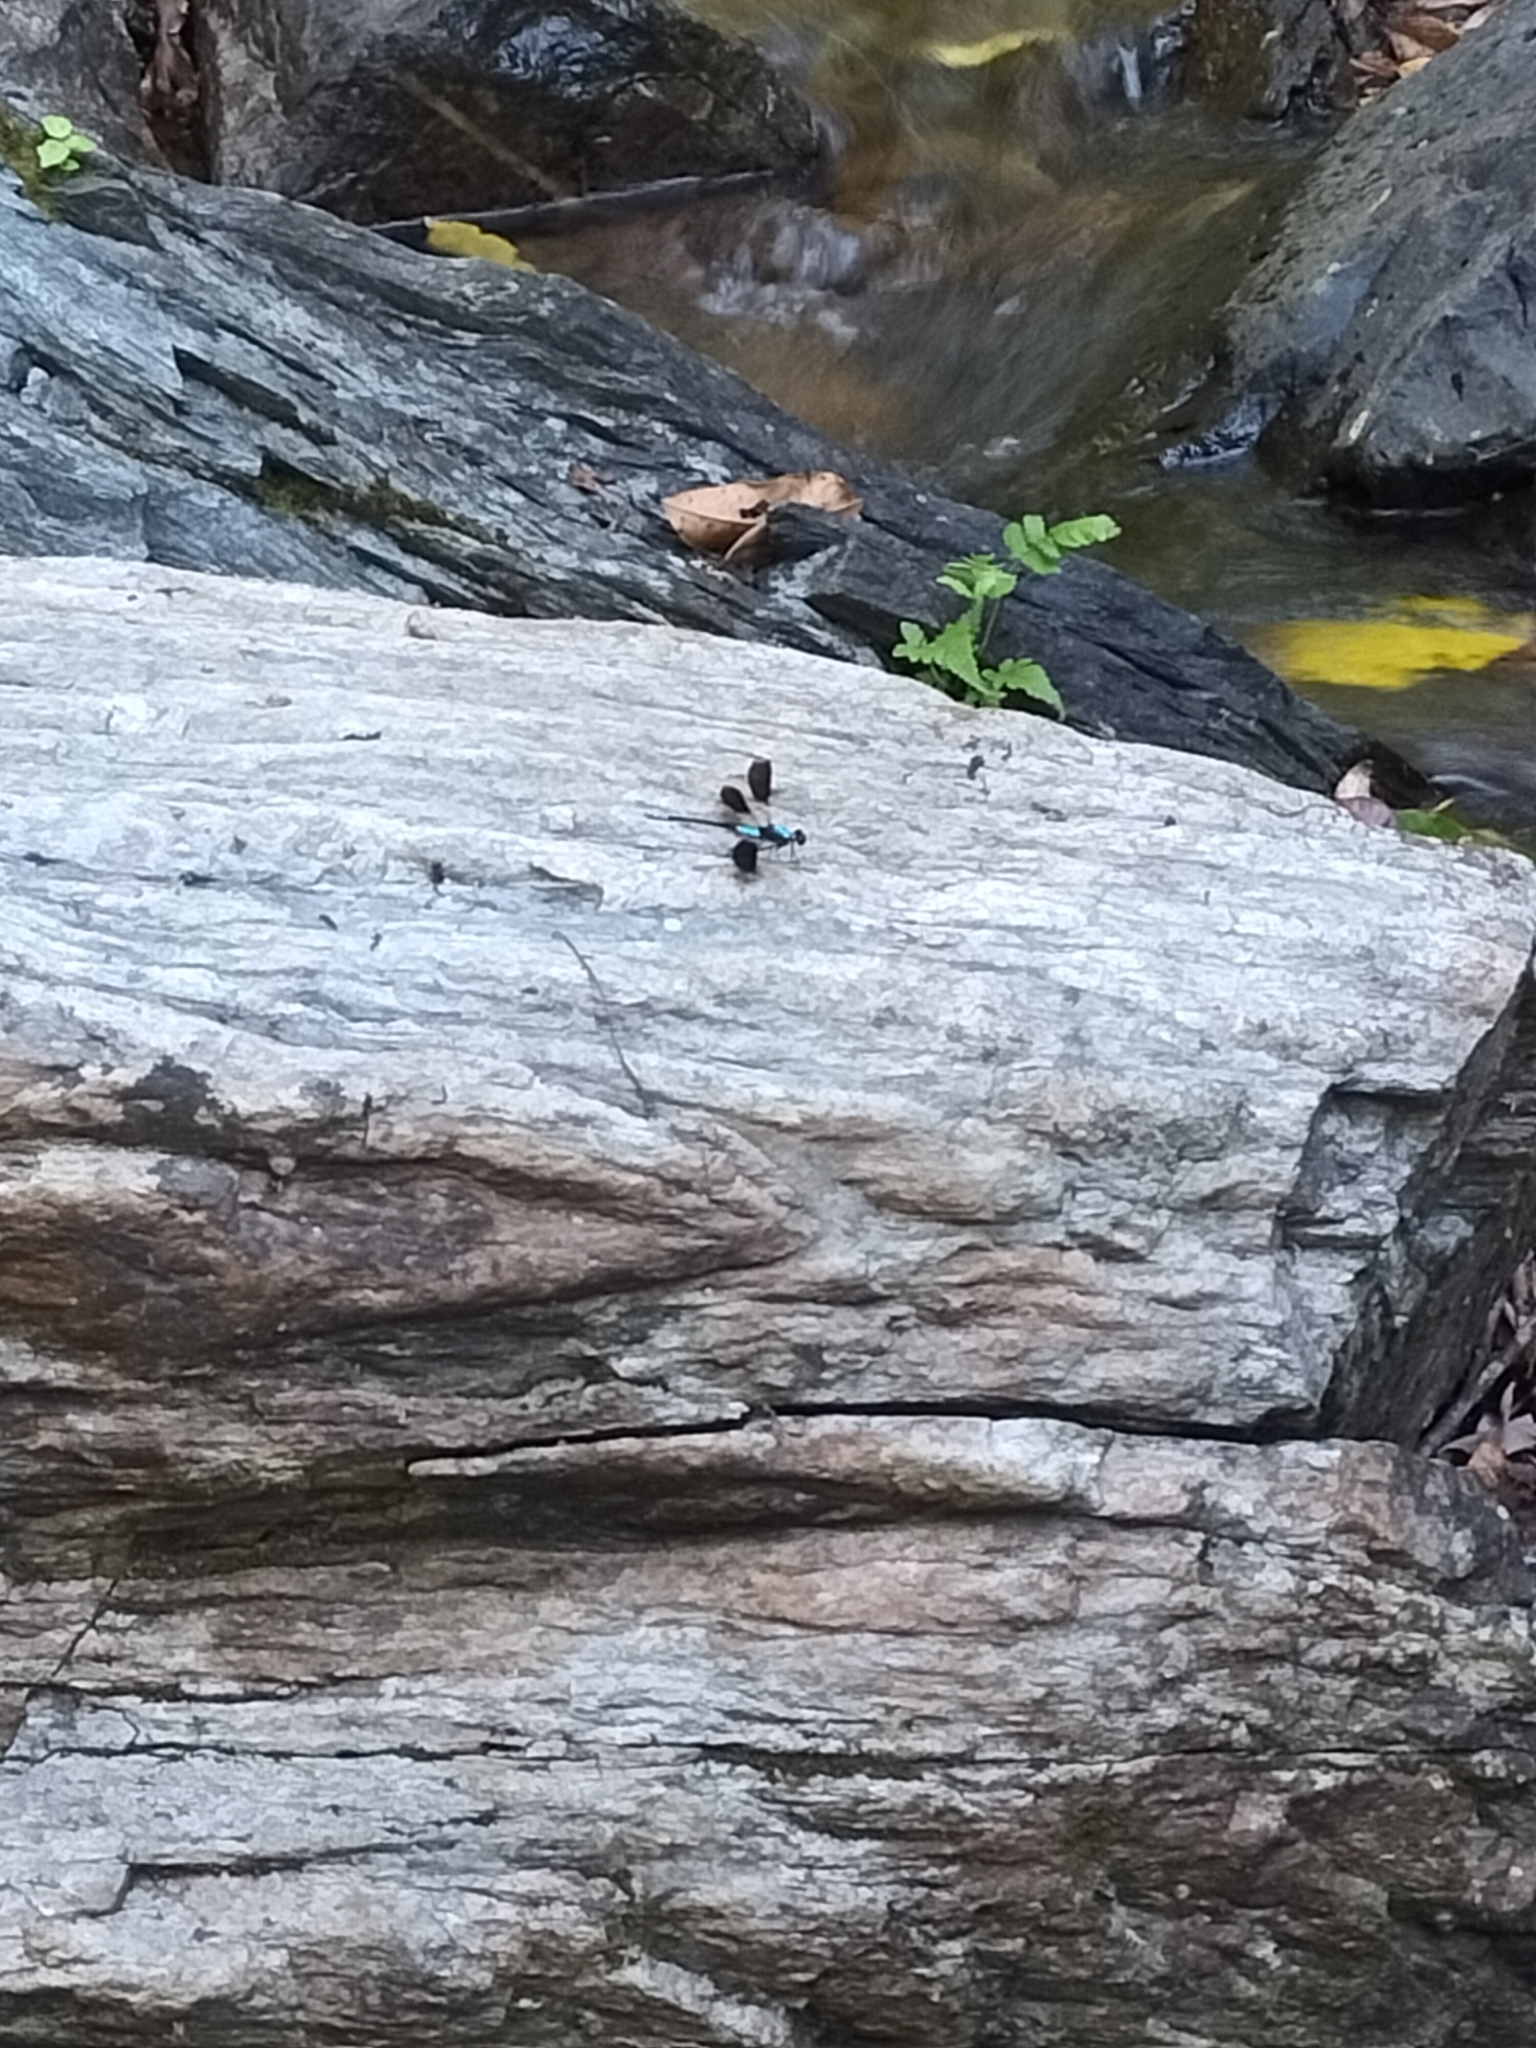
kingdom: Animalia
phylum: Arthropoda
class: Insecta
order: Odonata
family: Lestoideidae
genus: Diphlebia
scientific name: Diphlebia euphoeoides
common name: Tropical rockmaster
